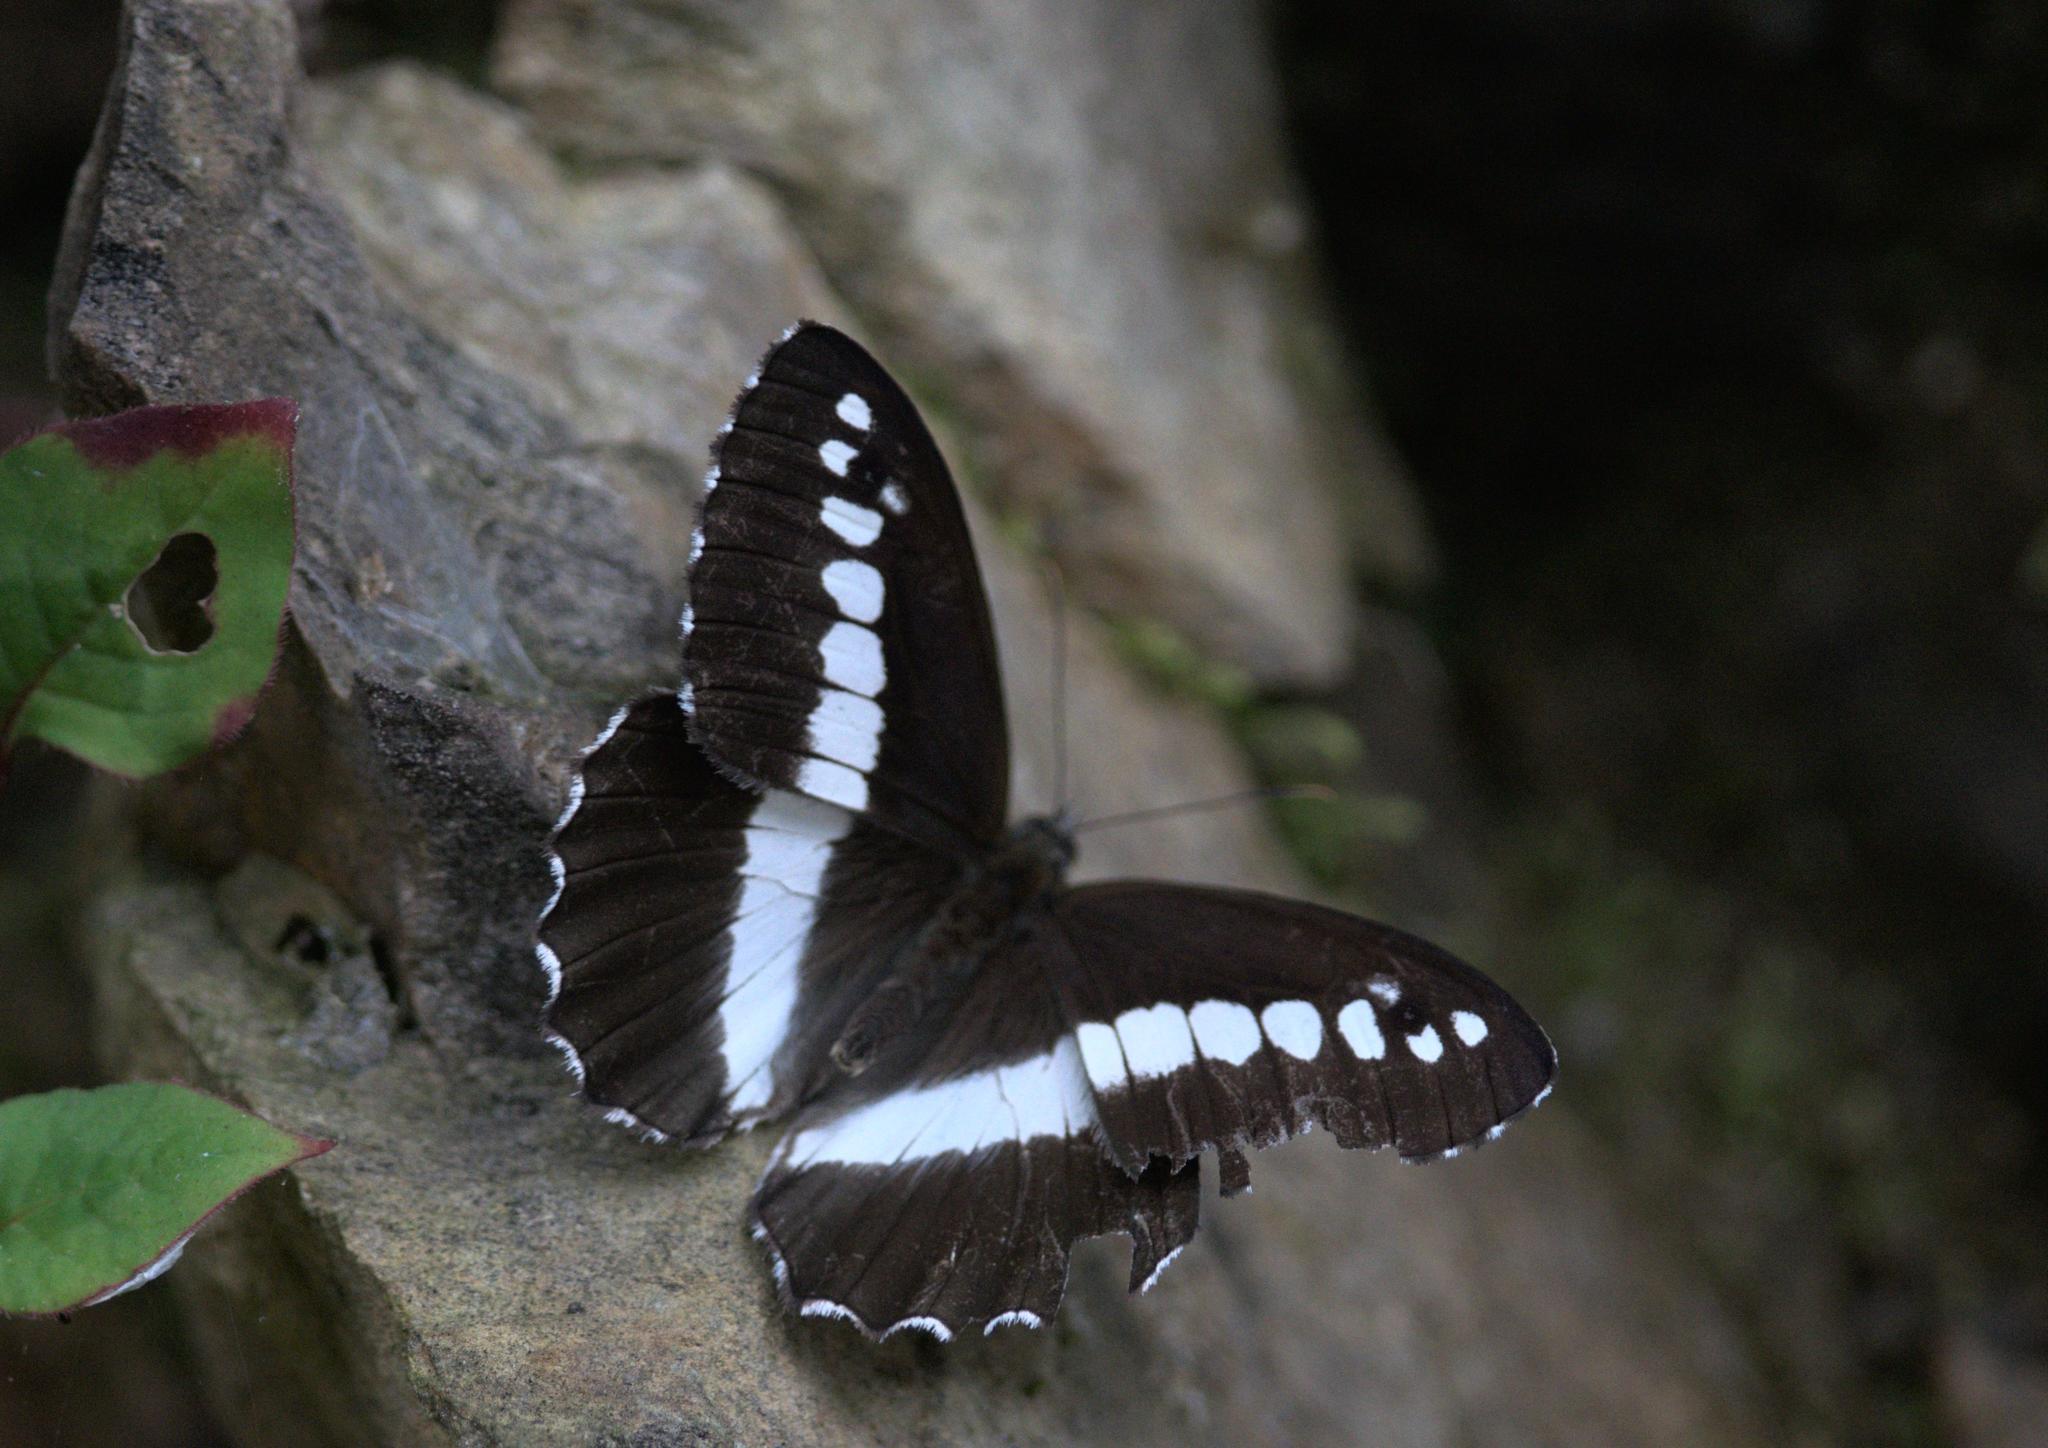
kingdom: Animalia
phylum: Arthropoda
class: Insecta
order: Lepidoptera
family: Nymphalidae
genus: Satyrus
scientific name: Satyrus
